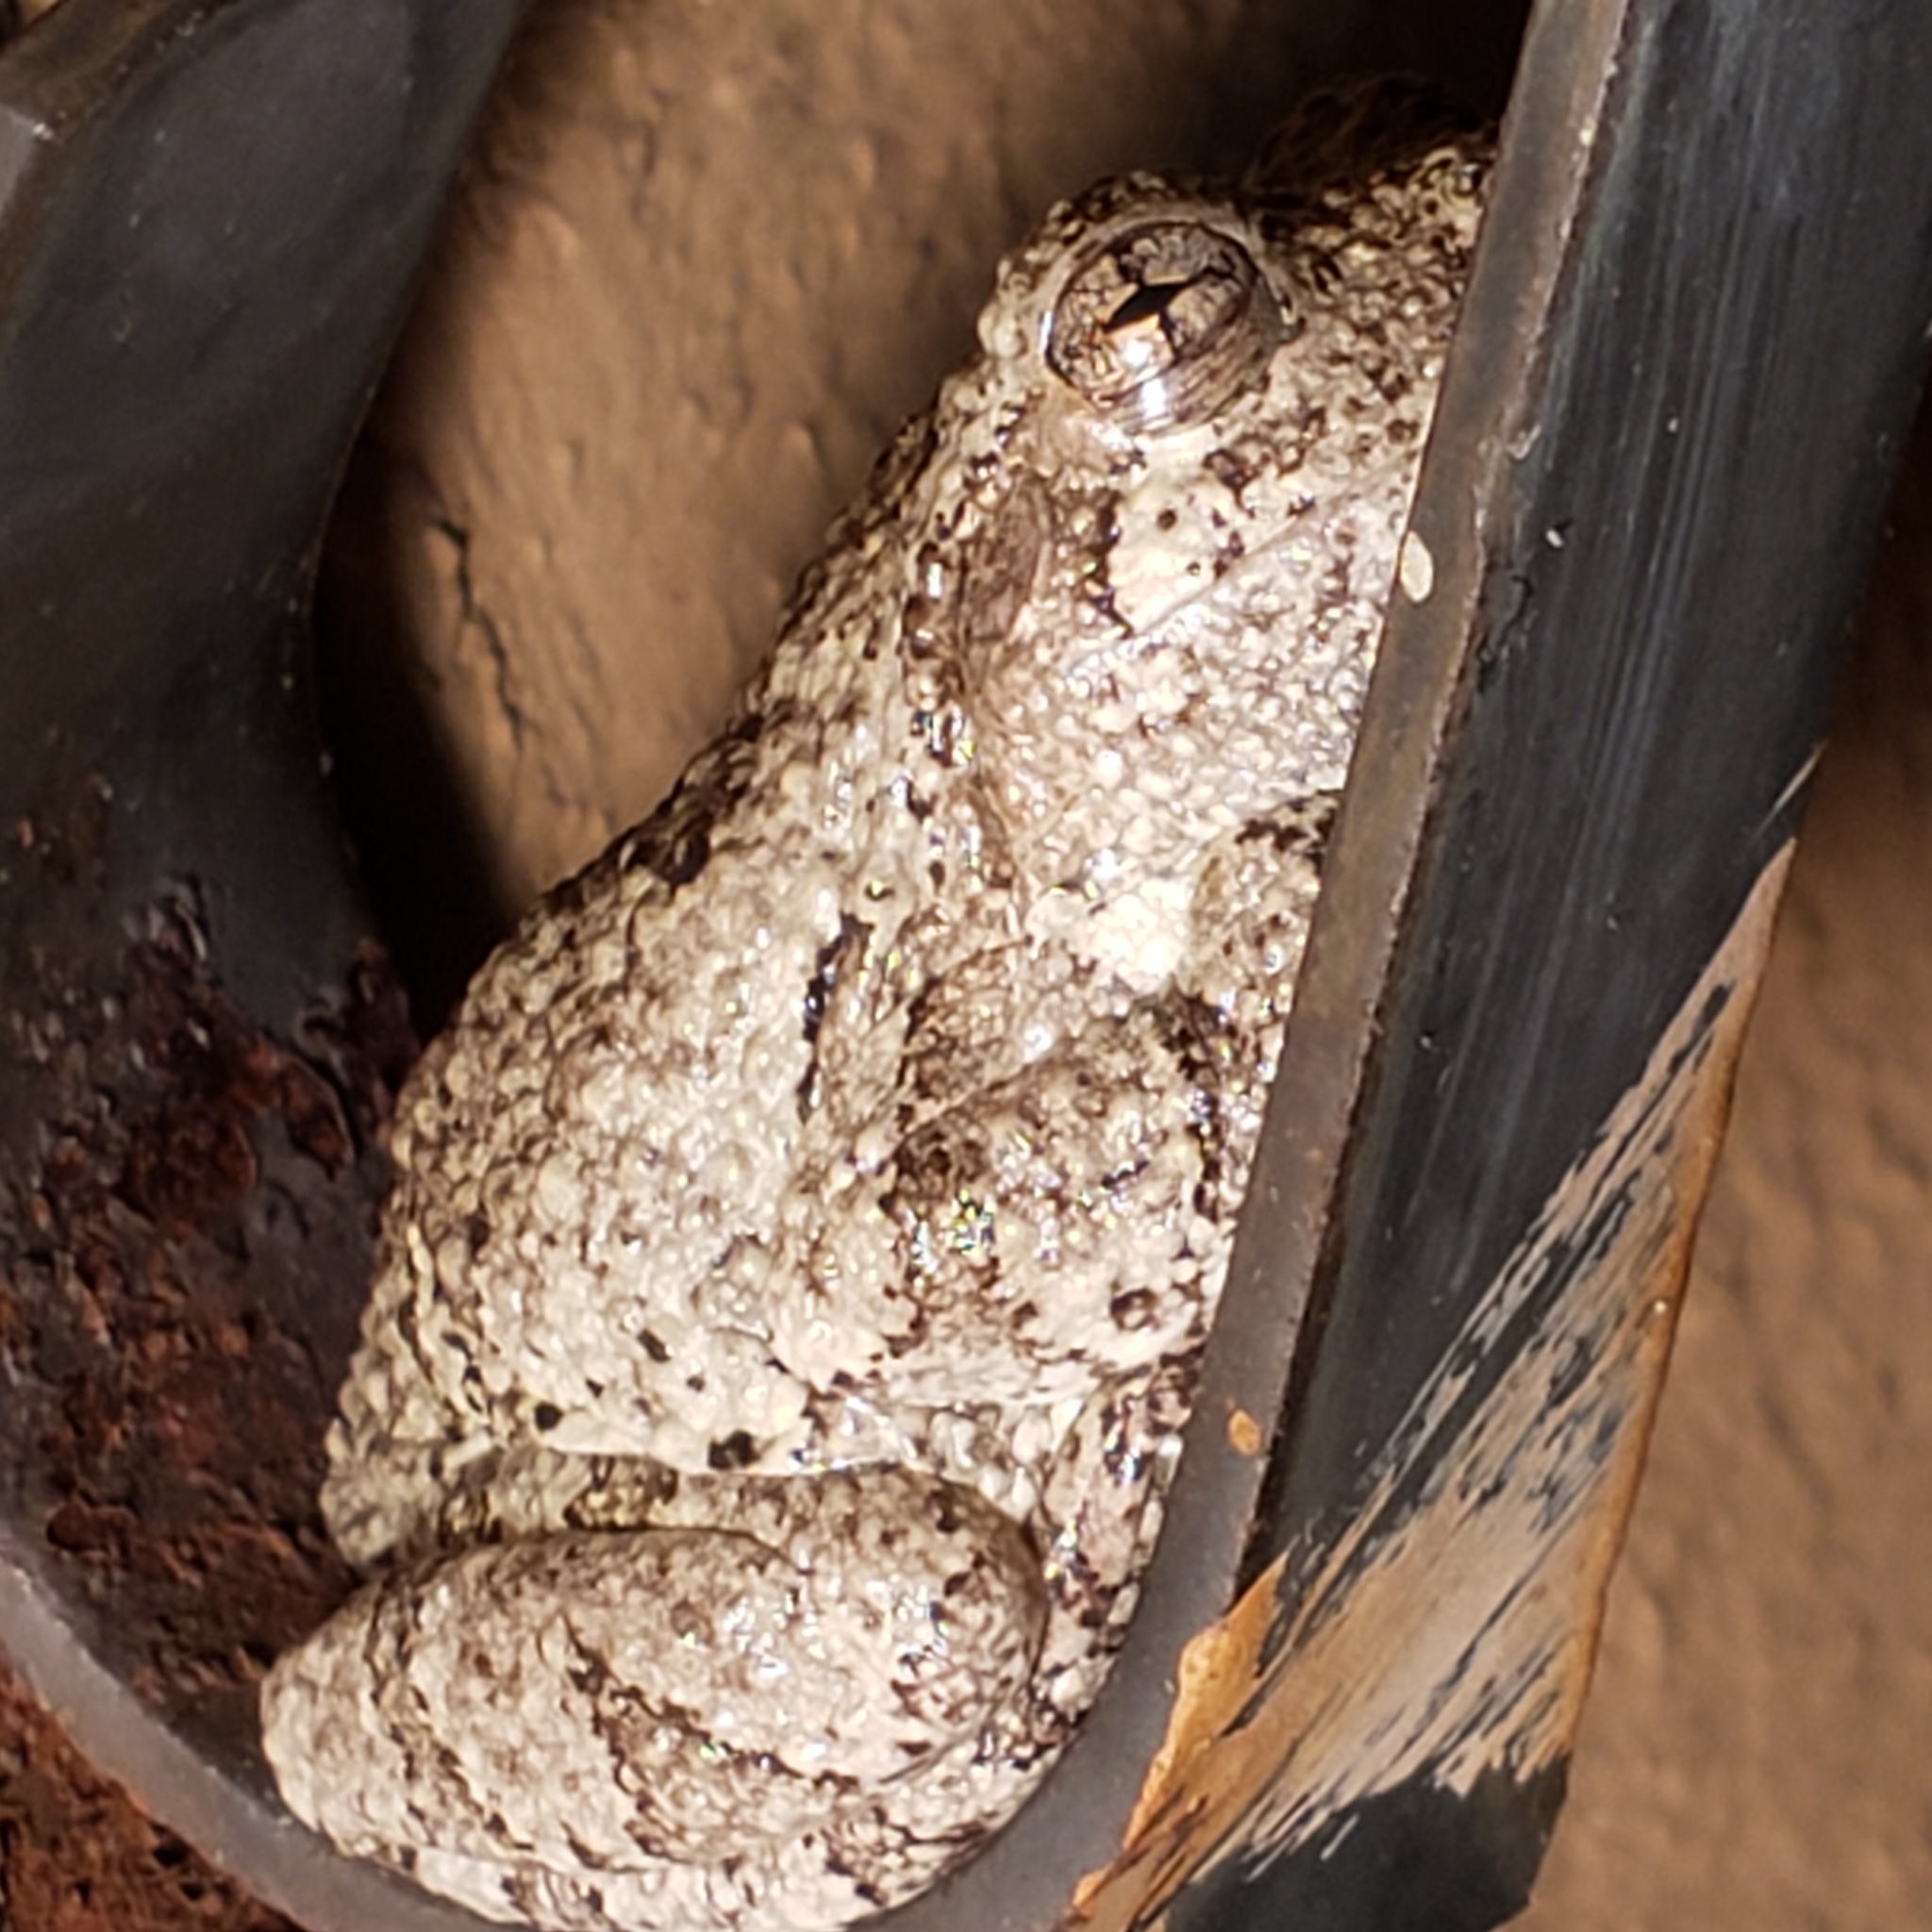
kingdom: Animalia
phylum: Chordata
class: Amphibia
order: Anura
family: Hylidae
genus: Hyla
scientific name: Hyla
